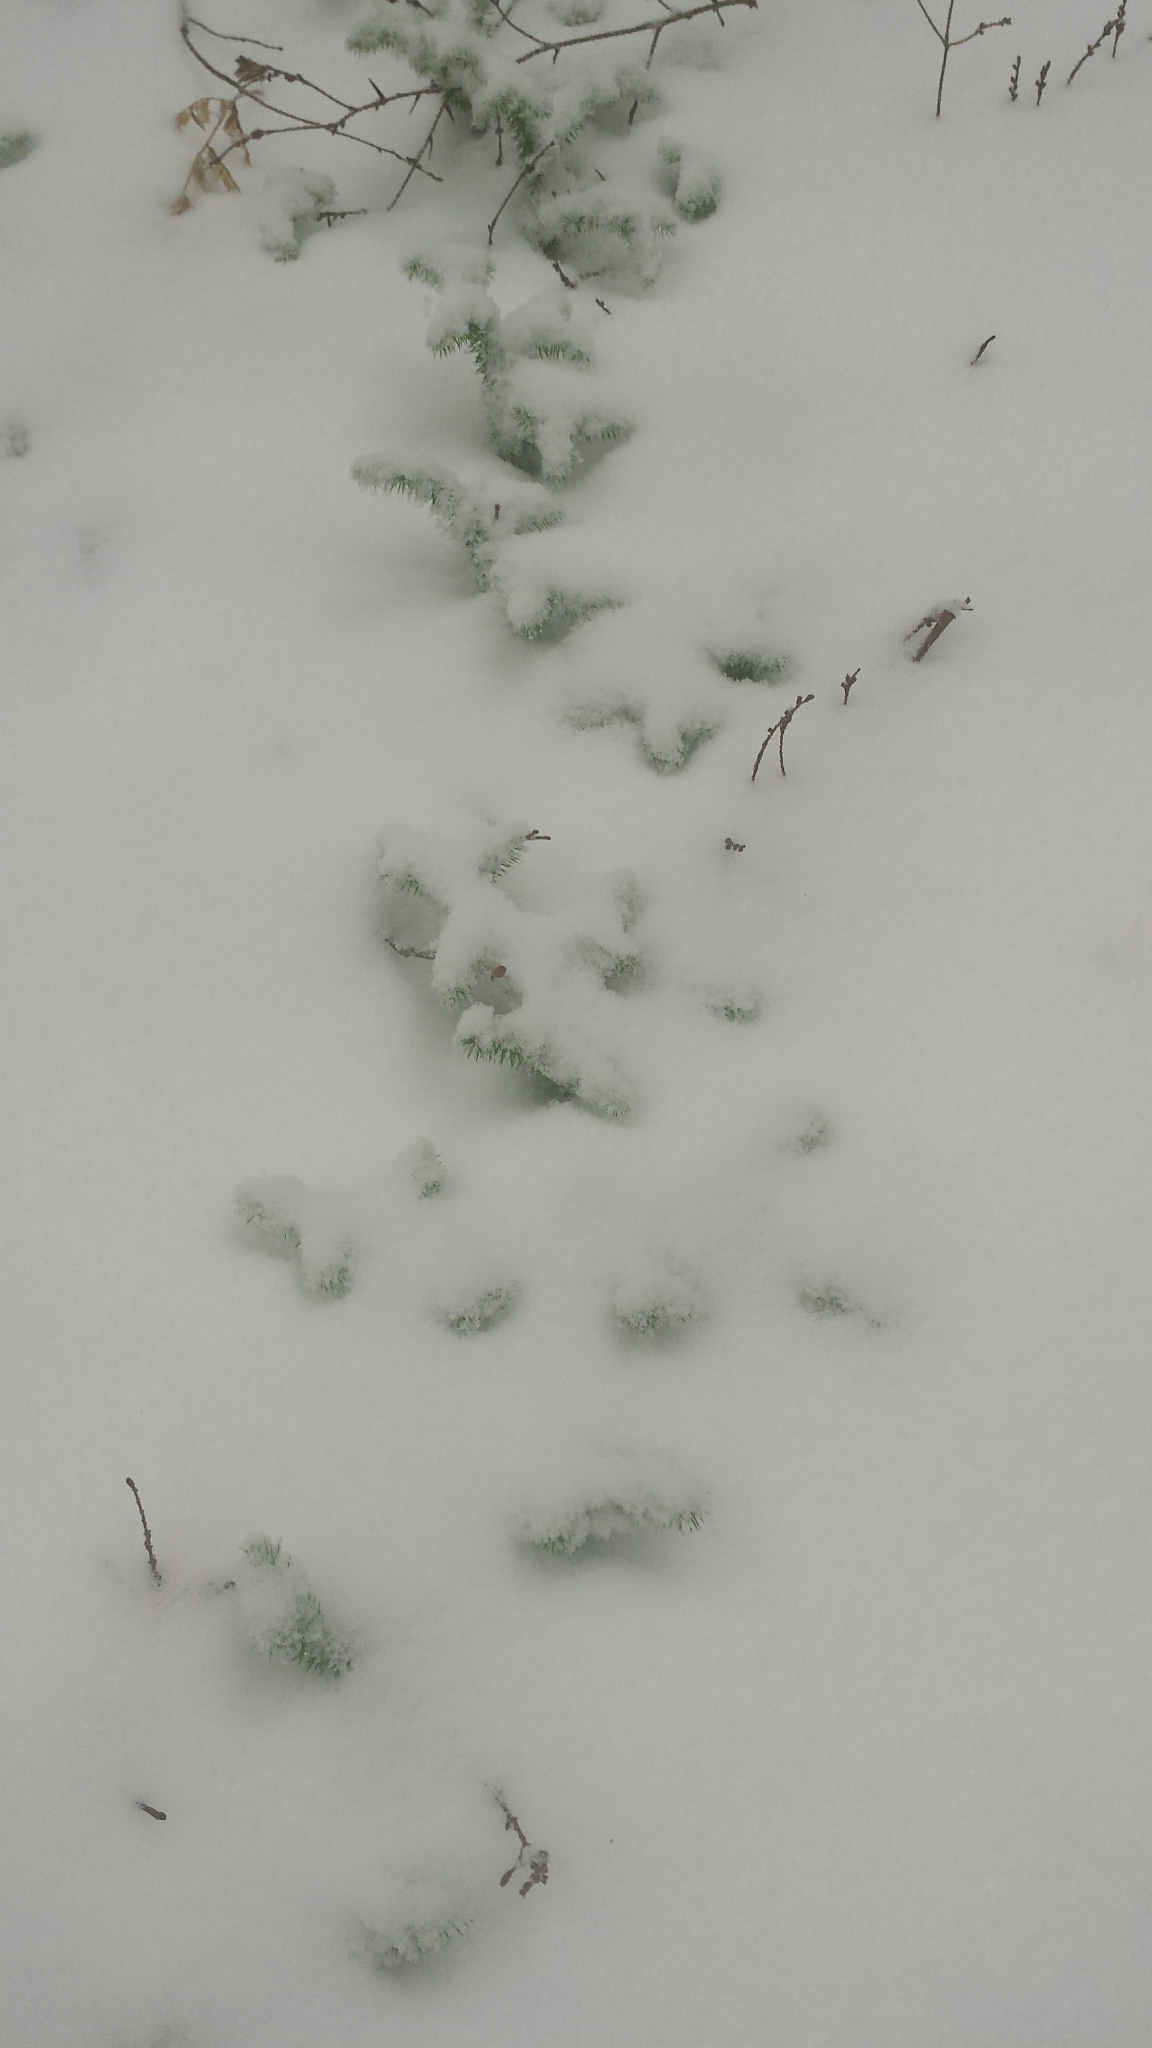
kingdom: Plantae
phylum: Tracheophyta
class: Lycopodiopsida
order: Lycopodiales
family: Lycopodiaceae
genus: Lycopodium
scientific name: Lycopodium clavatum
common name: Stag's-horn clubmoss
